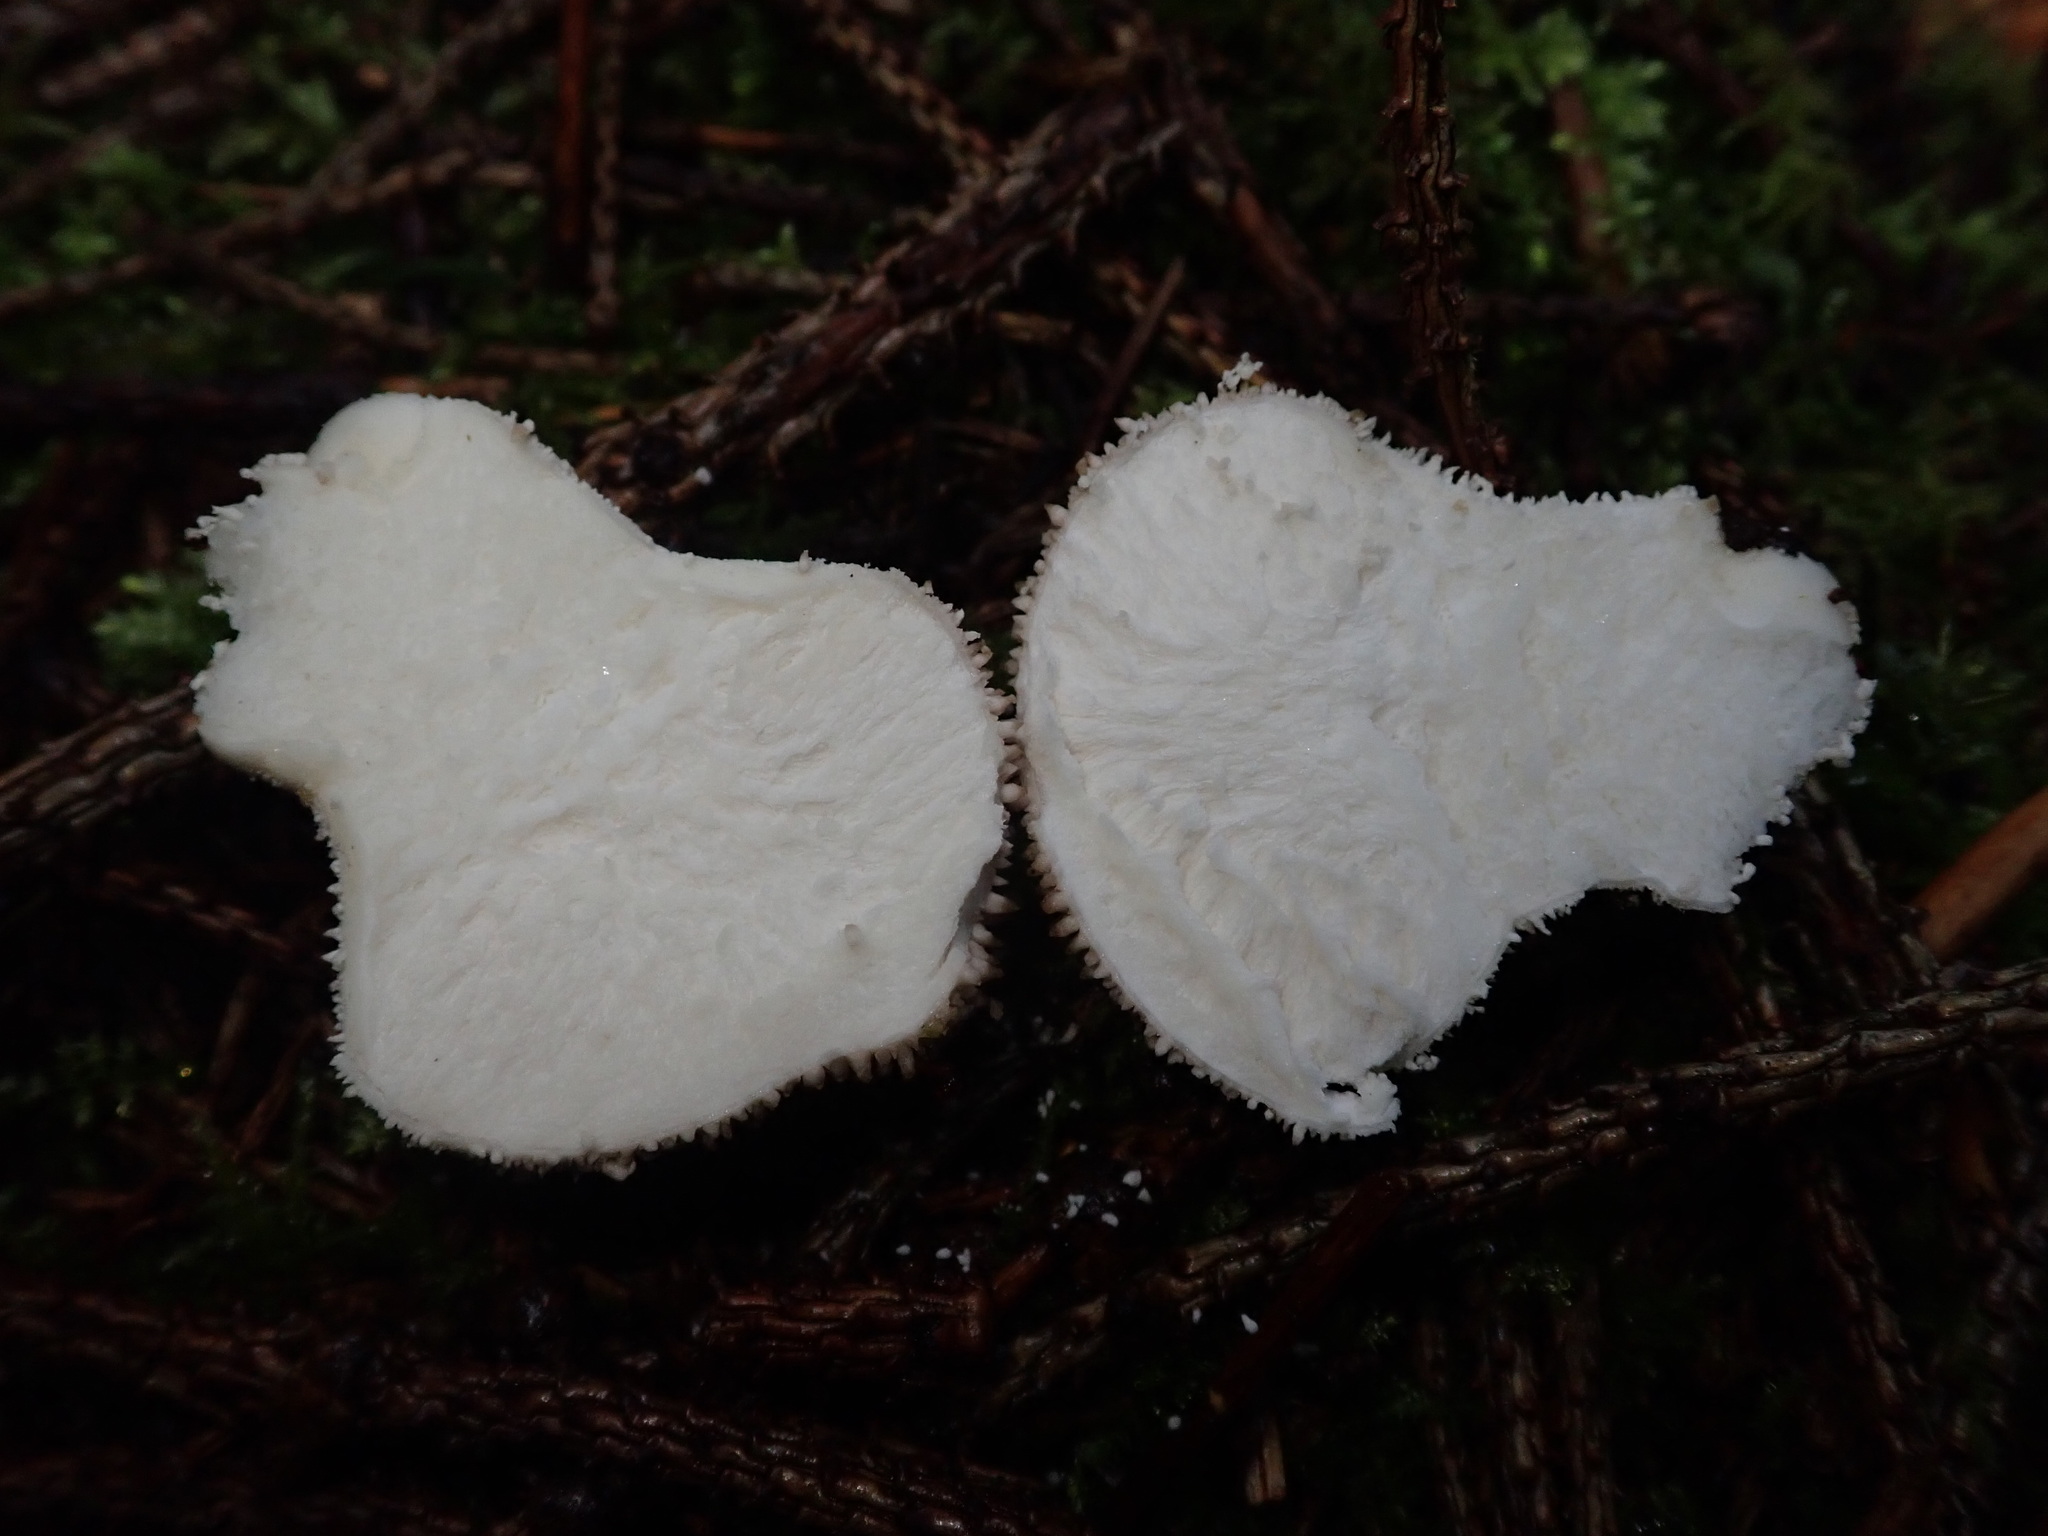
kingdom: Fungi
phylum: Basidiomycota
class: Agaricomycetes
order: Agaricales
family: Lycoperdaceae
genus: Lycoperdon
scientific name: Lycoperdon perlatum
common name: Common puffball
